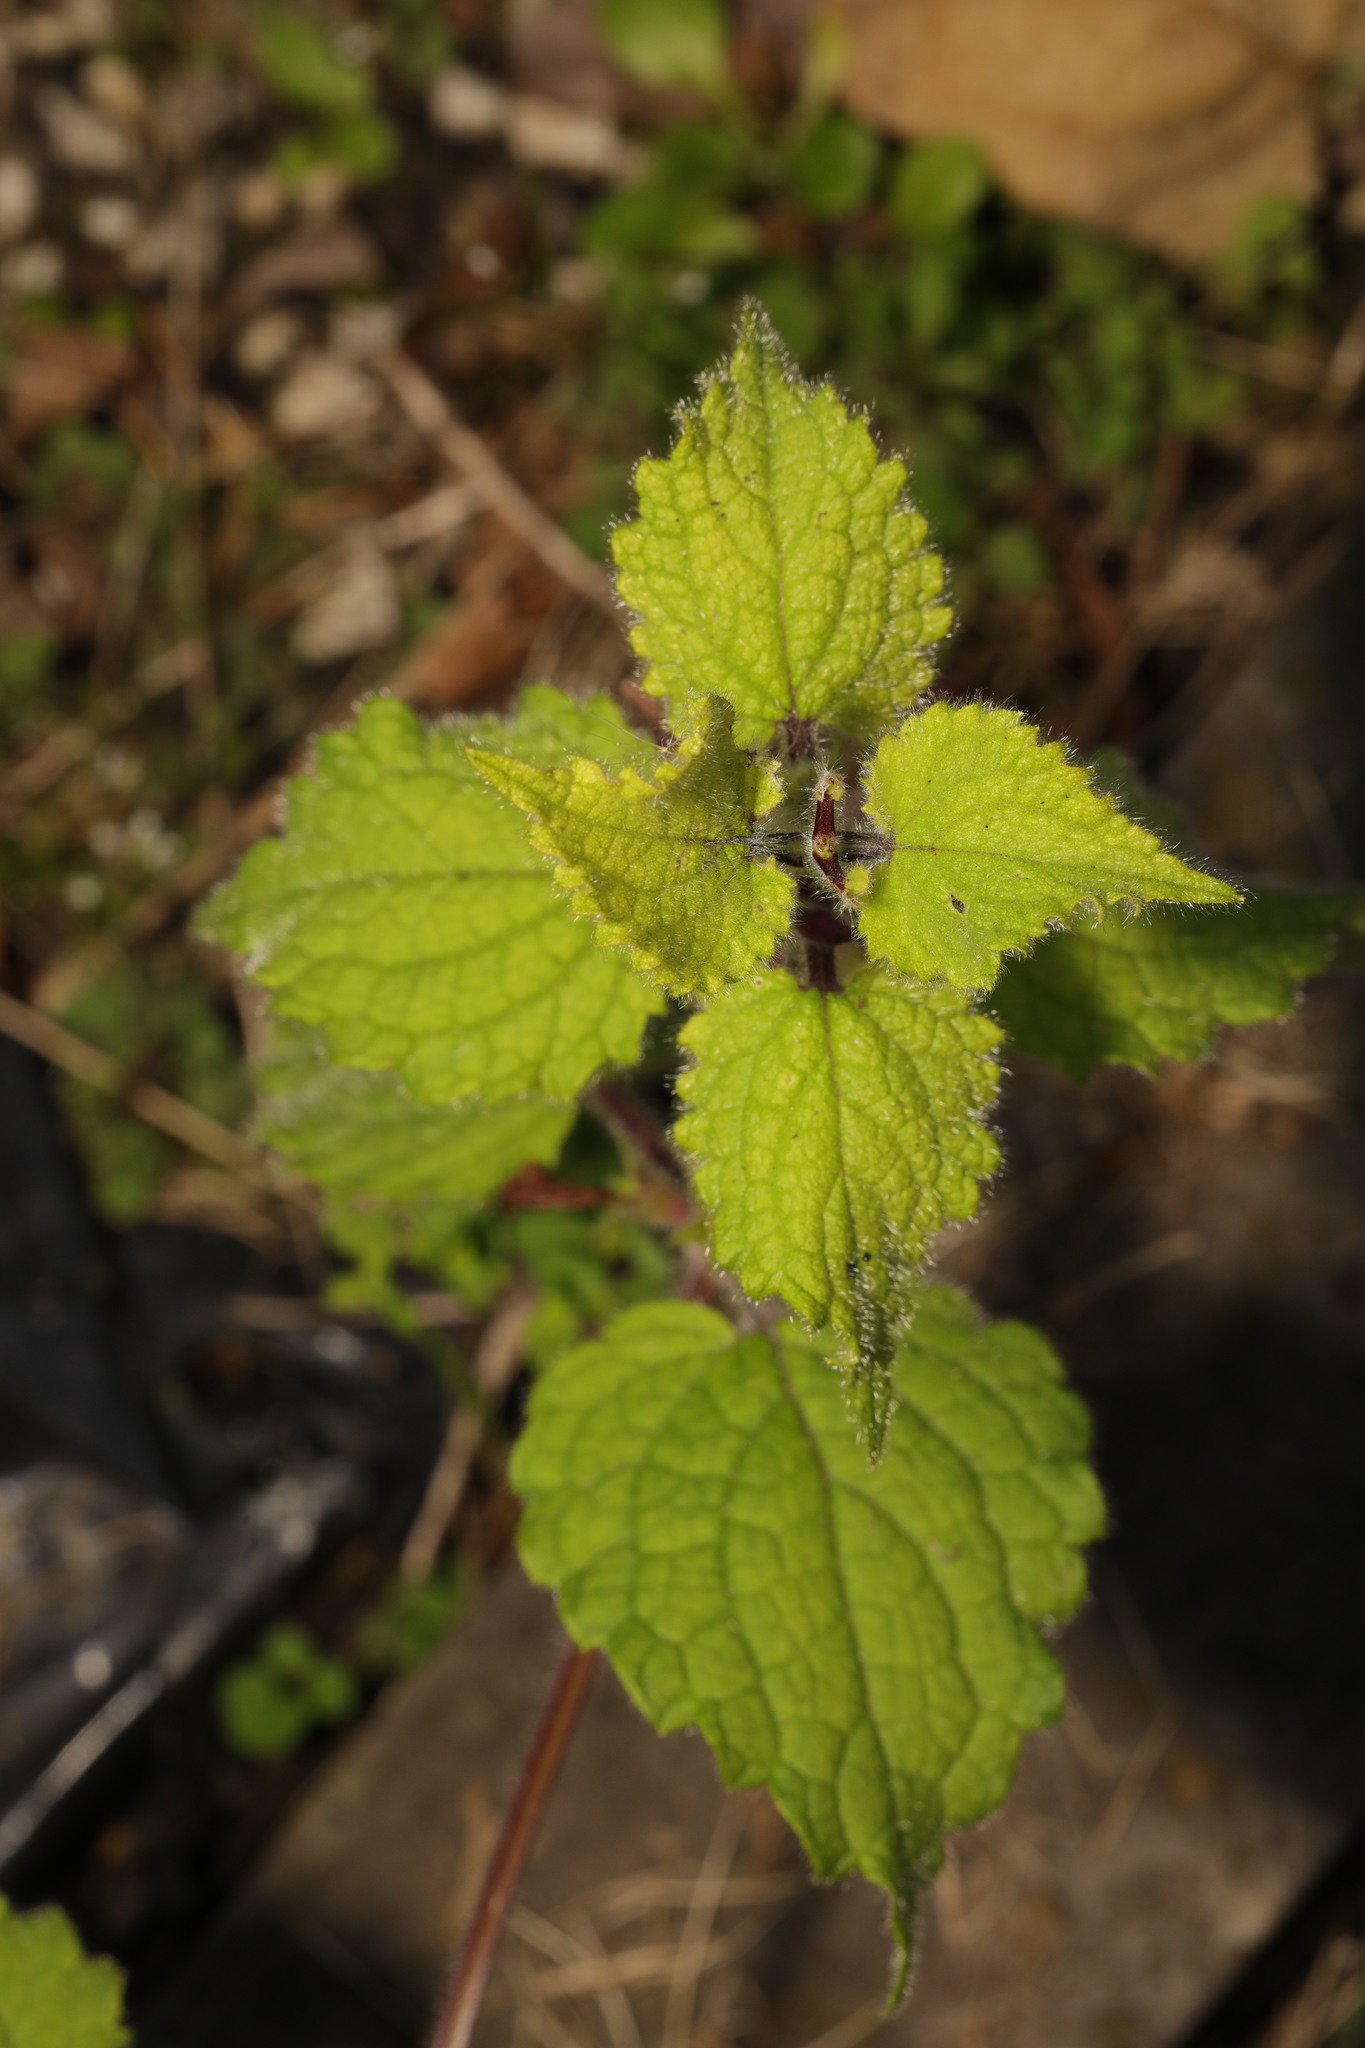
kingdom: Plantae
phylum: Tracheophyta
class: Magnoliopsida
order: Lamiales
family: Lamiaceae
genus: Stachys
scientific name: Stachys sylvatica
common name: Hedge woundwort
